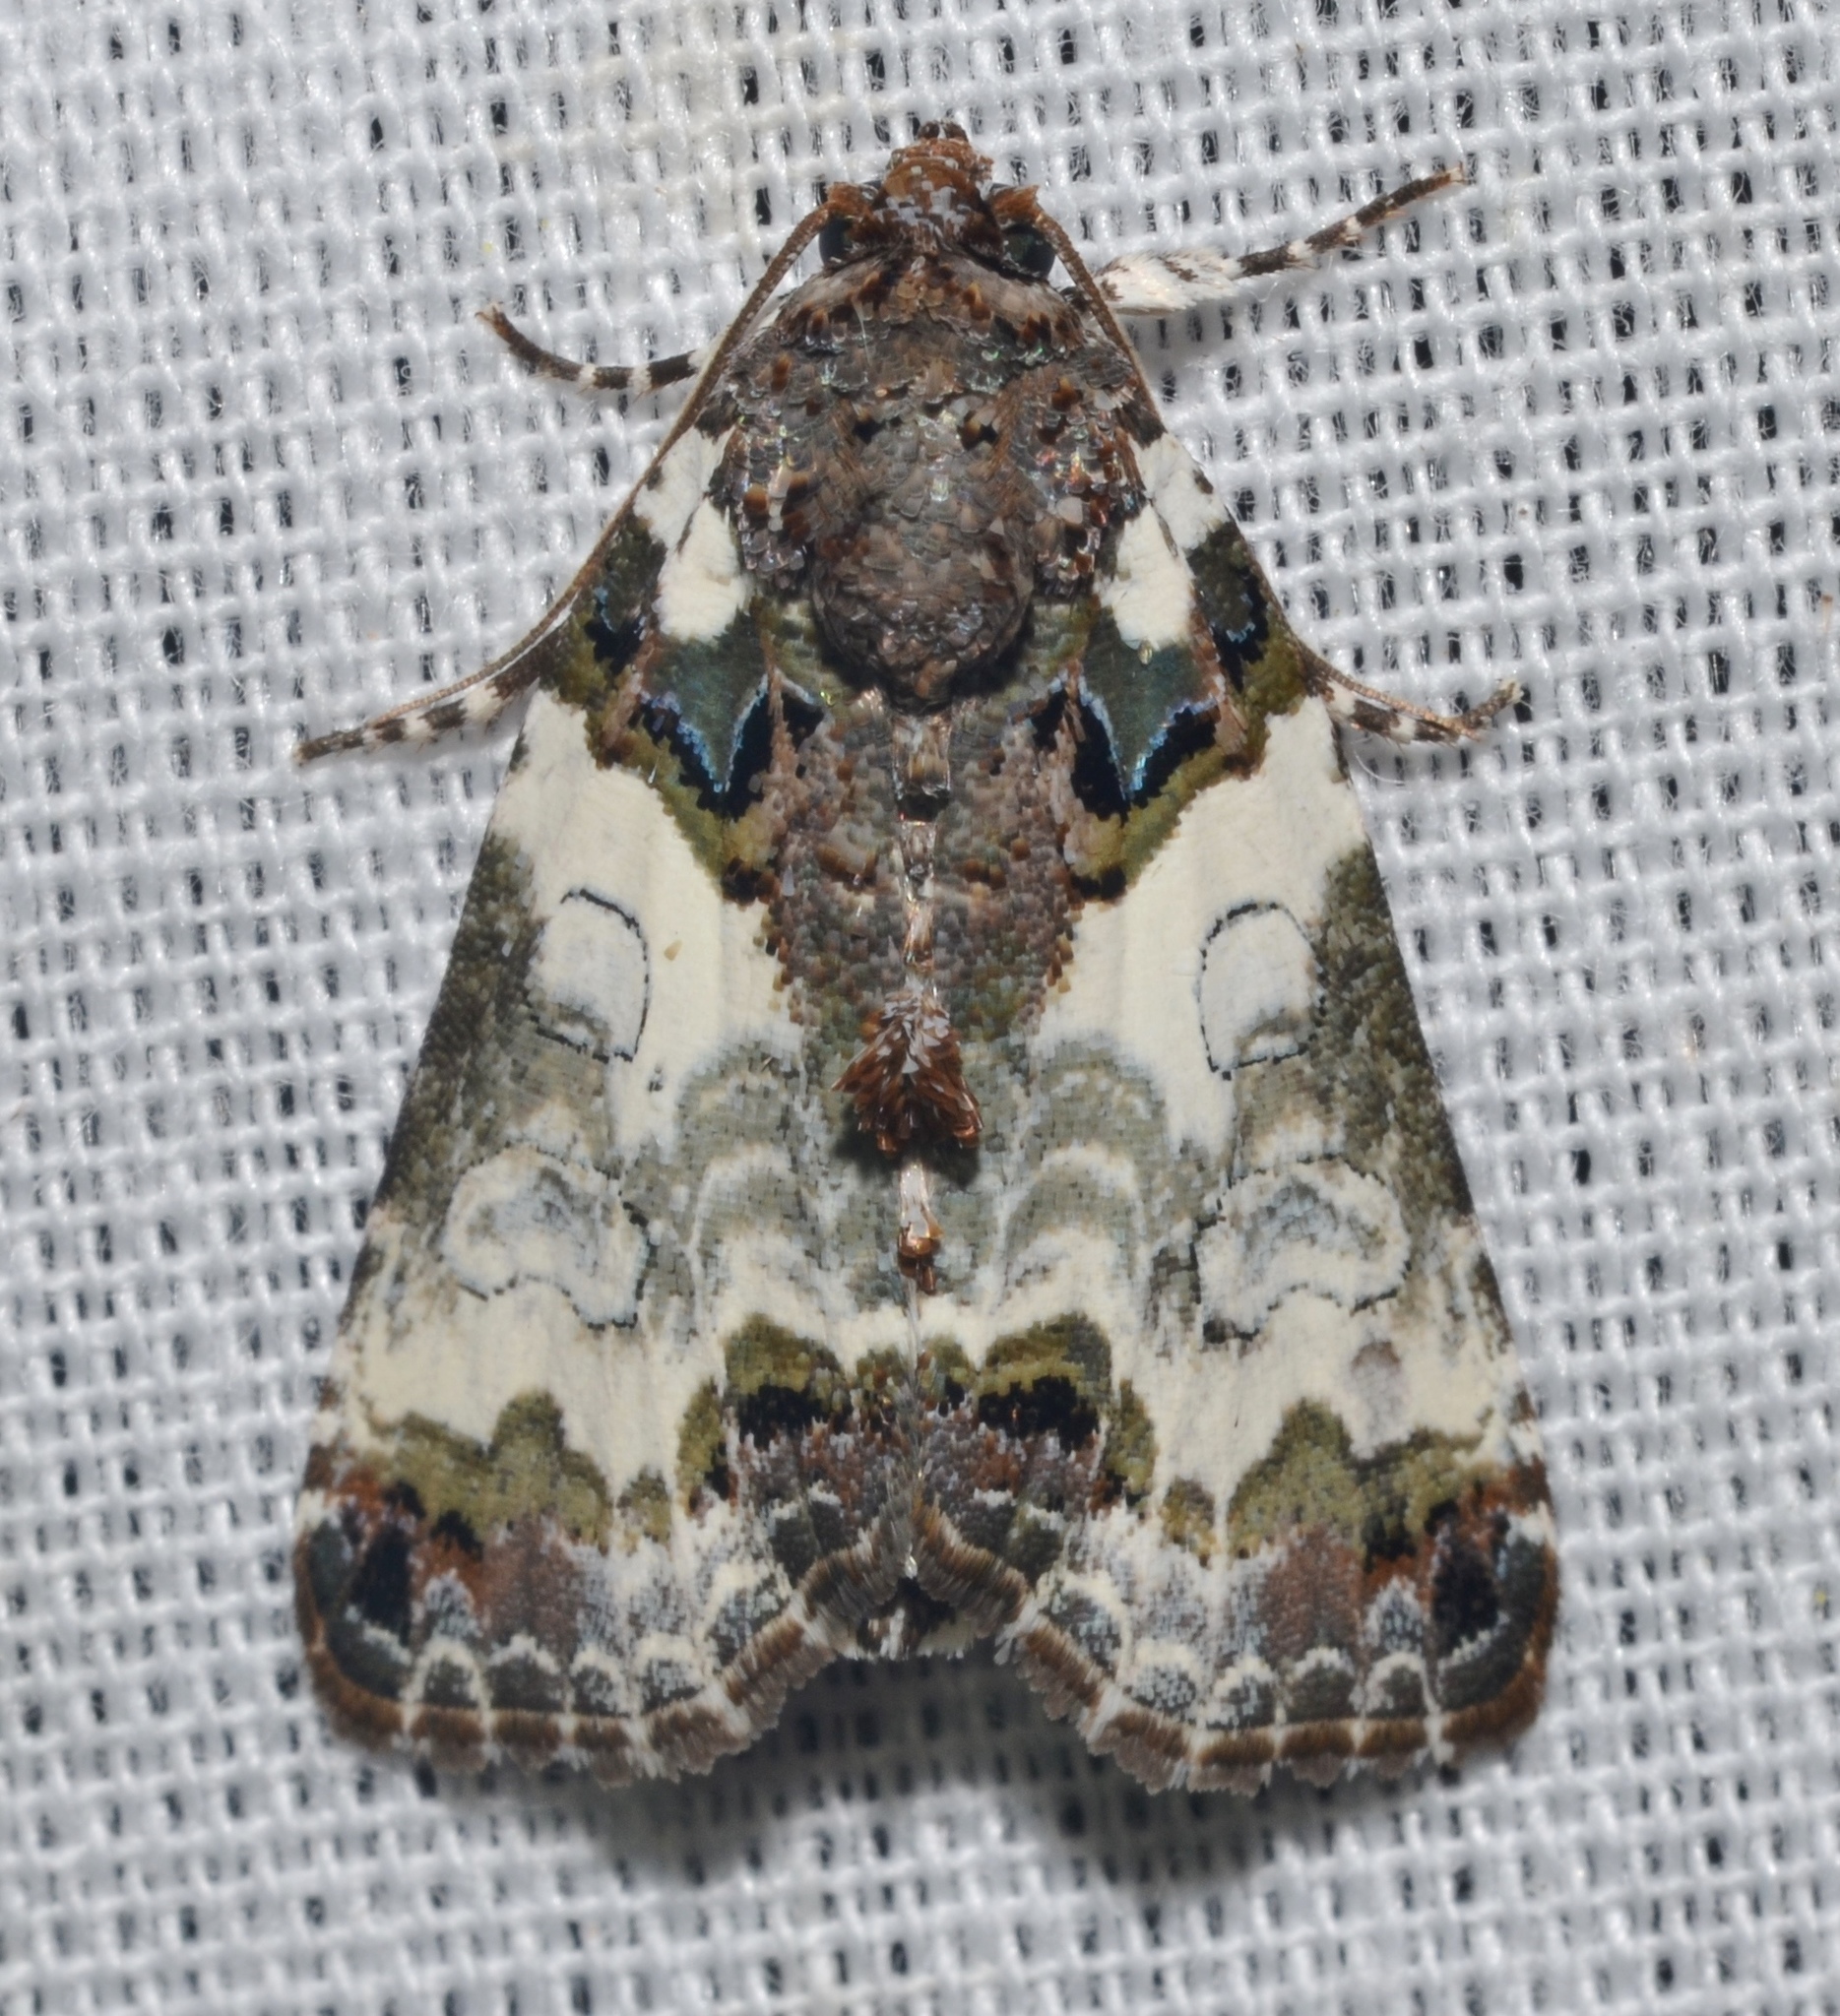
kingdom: Animalia
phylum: Arthropoda
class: Insecta
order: Lepidoptera
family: Noctuidae
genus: Cerma
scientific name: Cerma cerintha
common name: Tufted bird-dropping moth
